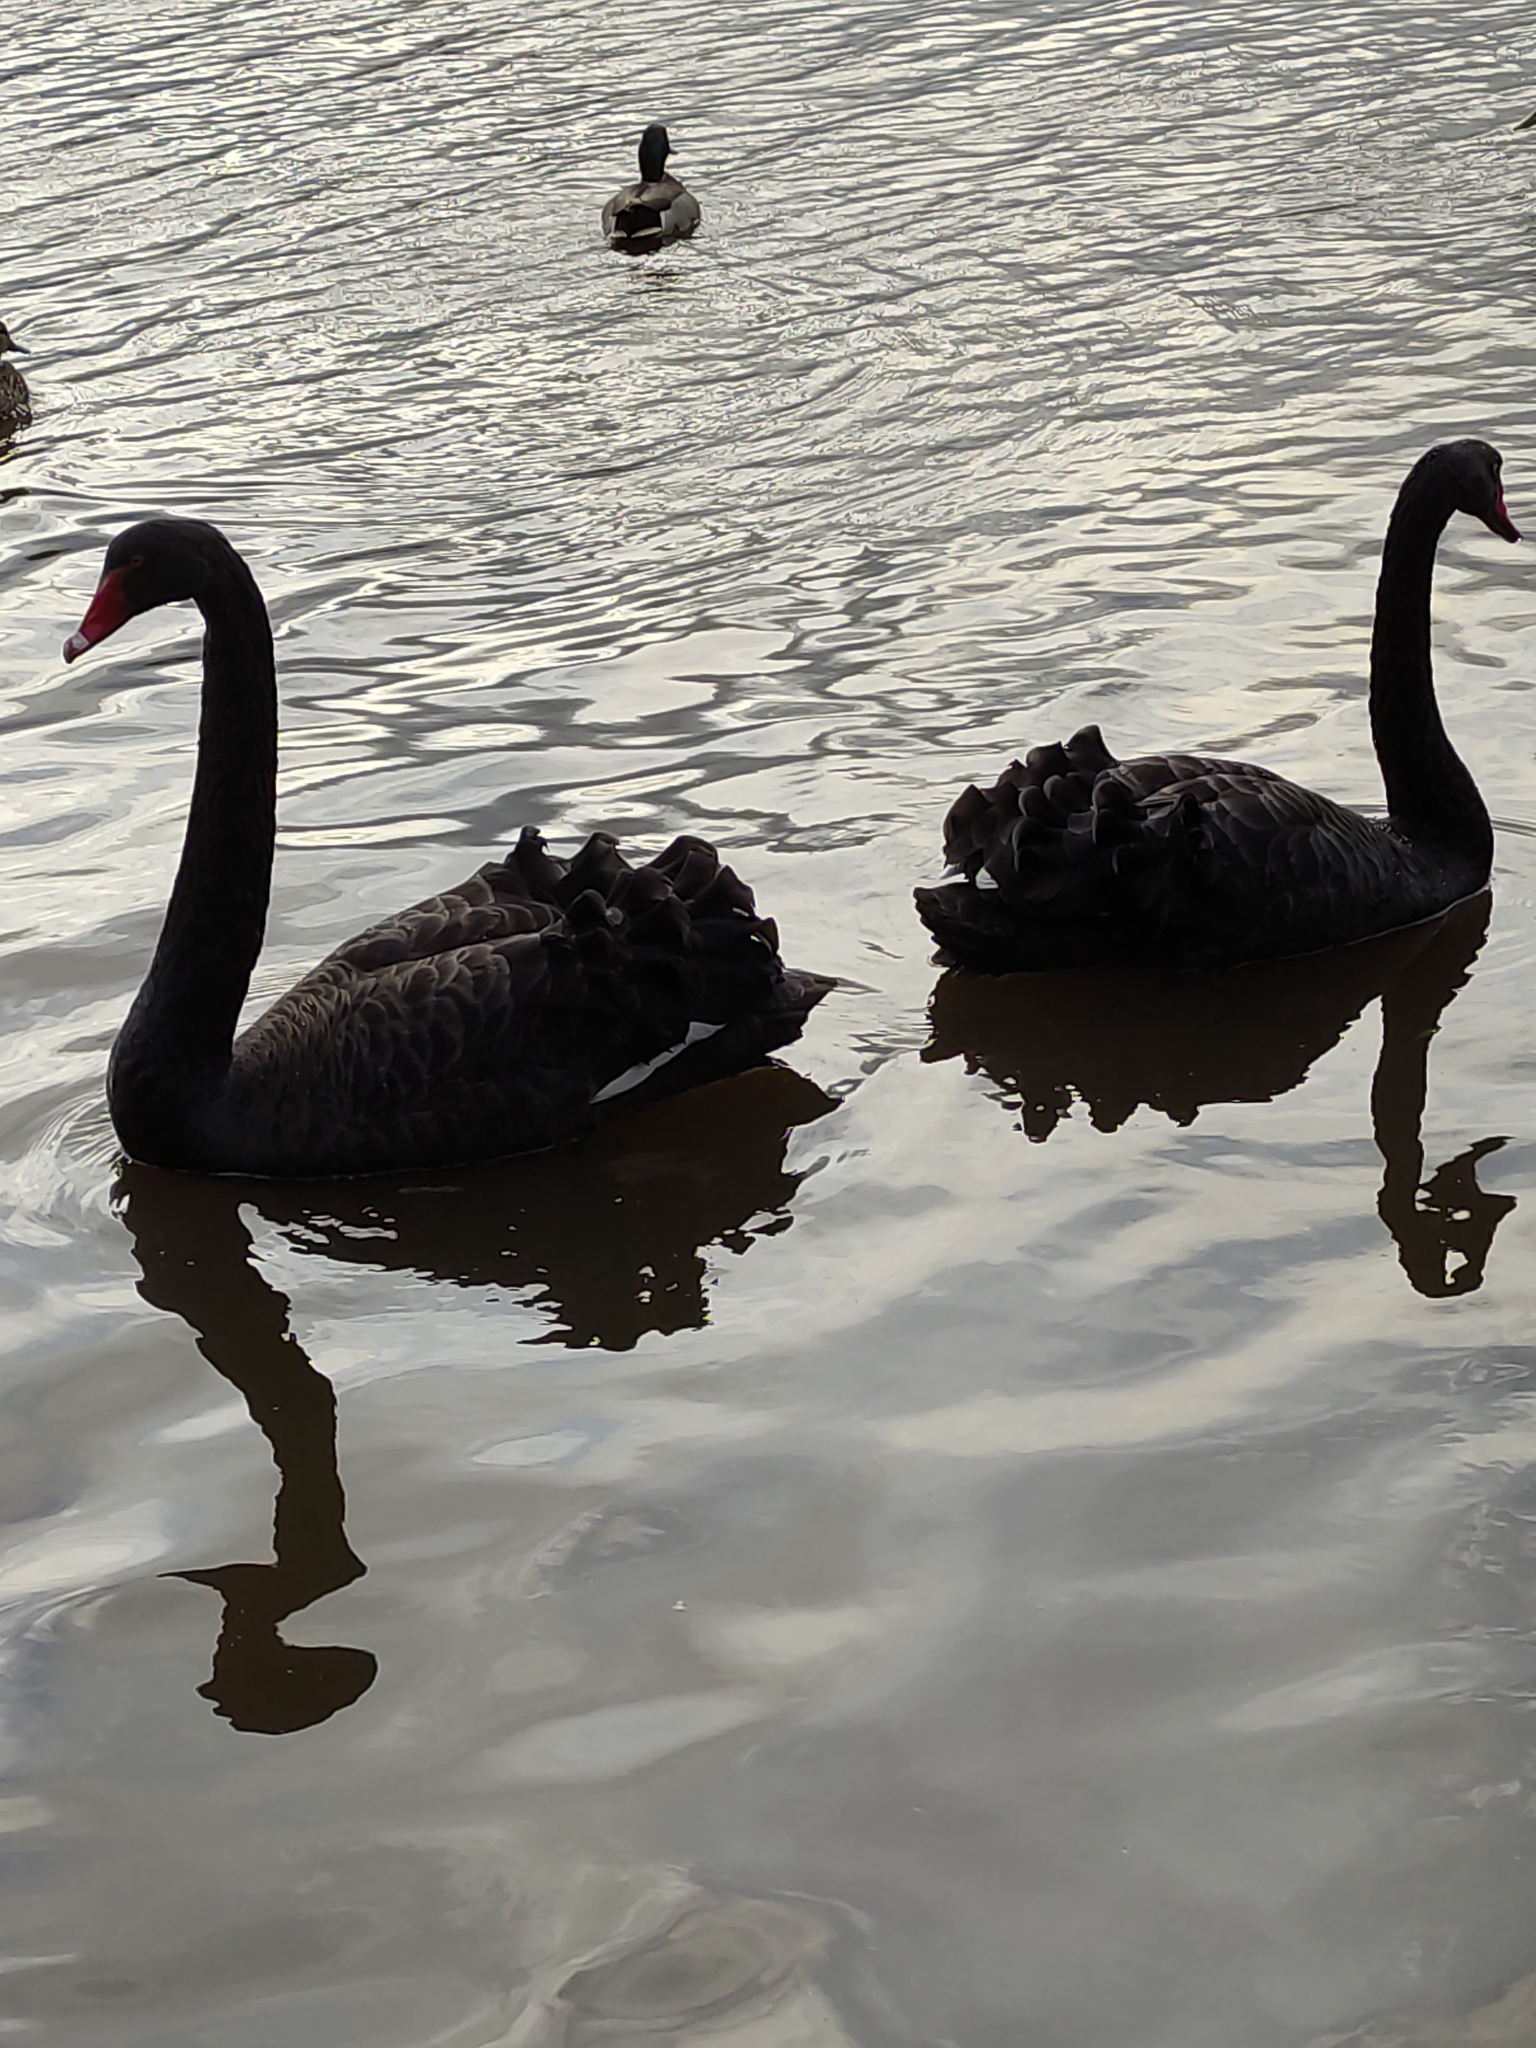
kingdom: Animalia
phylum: Chordata
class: Aves
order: Anseriformes
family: Anatidae
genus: Cygnus
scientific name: Cygnus atratus
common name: Black swan
